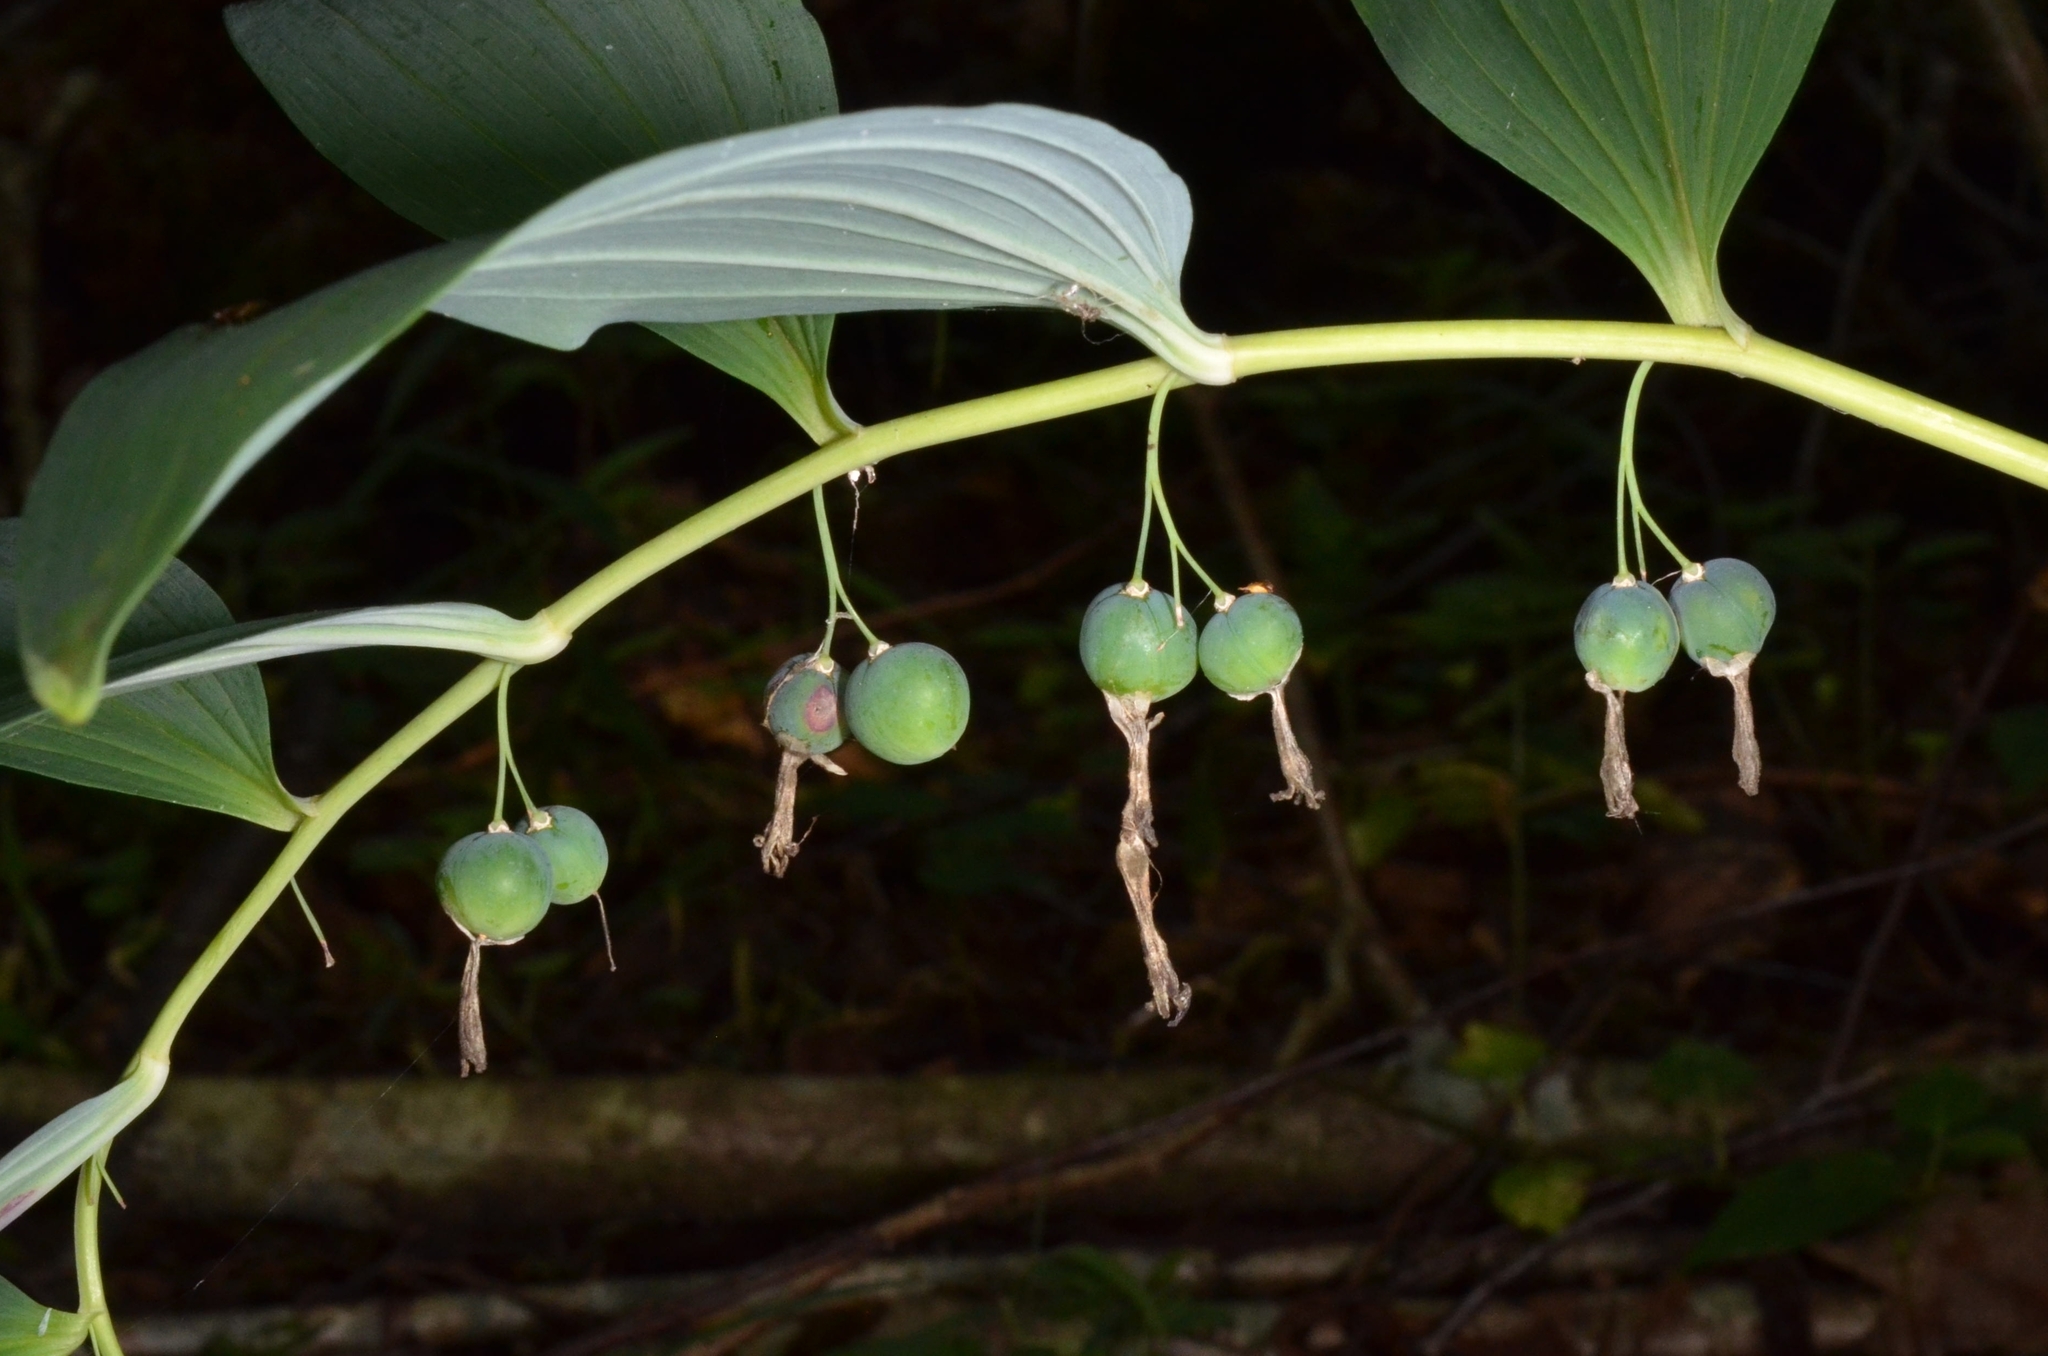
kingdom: Plantae
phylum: Tracheophyta
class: Liliopsida
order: Asparagales
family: Asparagaceae
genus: Polygonatum
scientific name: Polygonatum multiflorum
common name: Solomon's-seal
